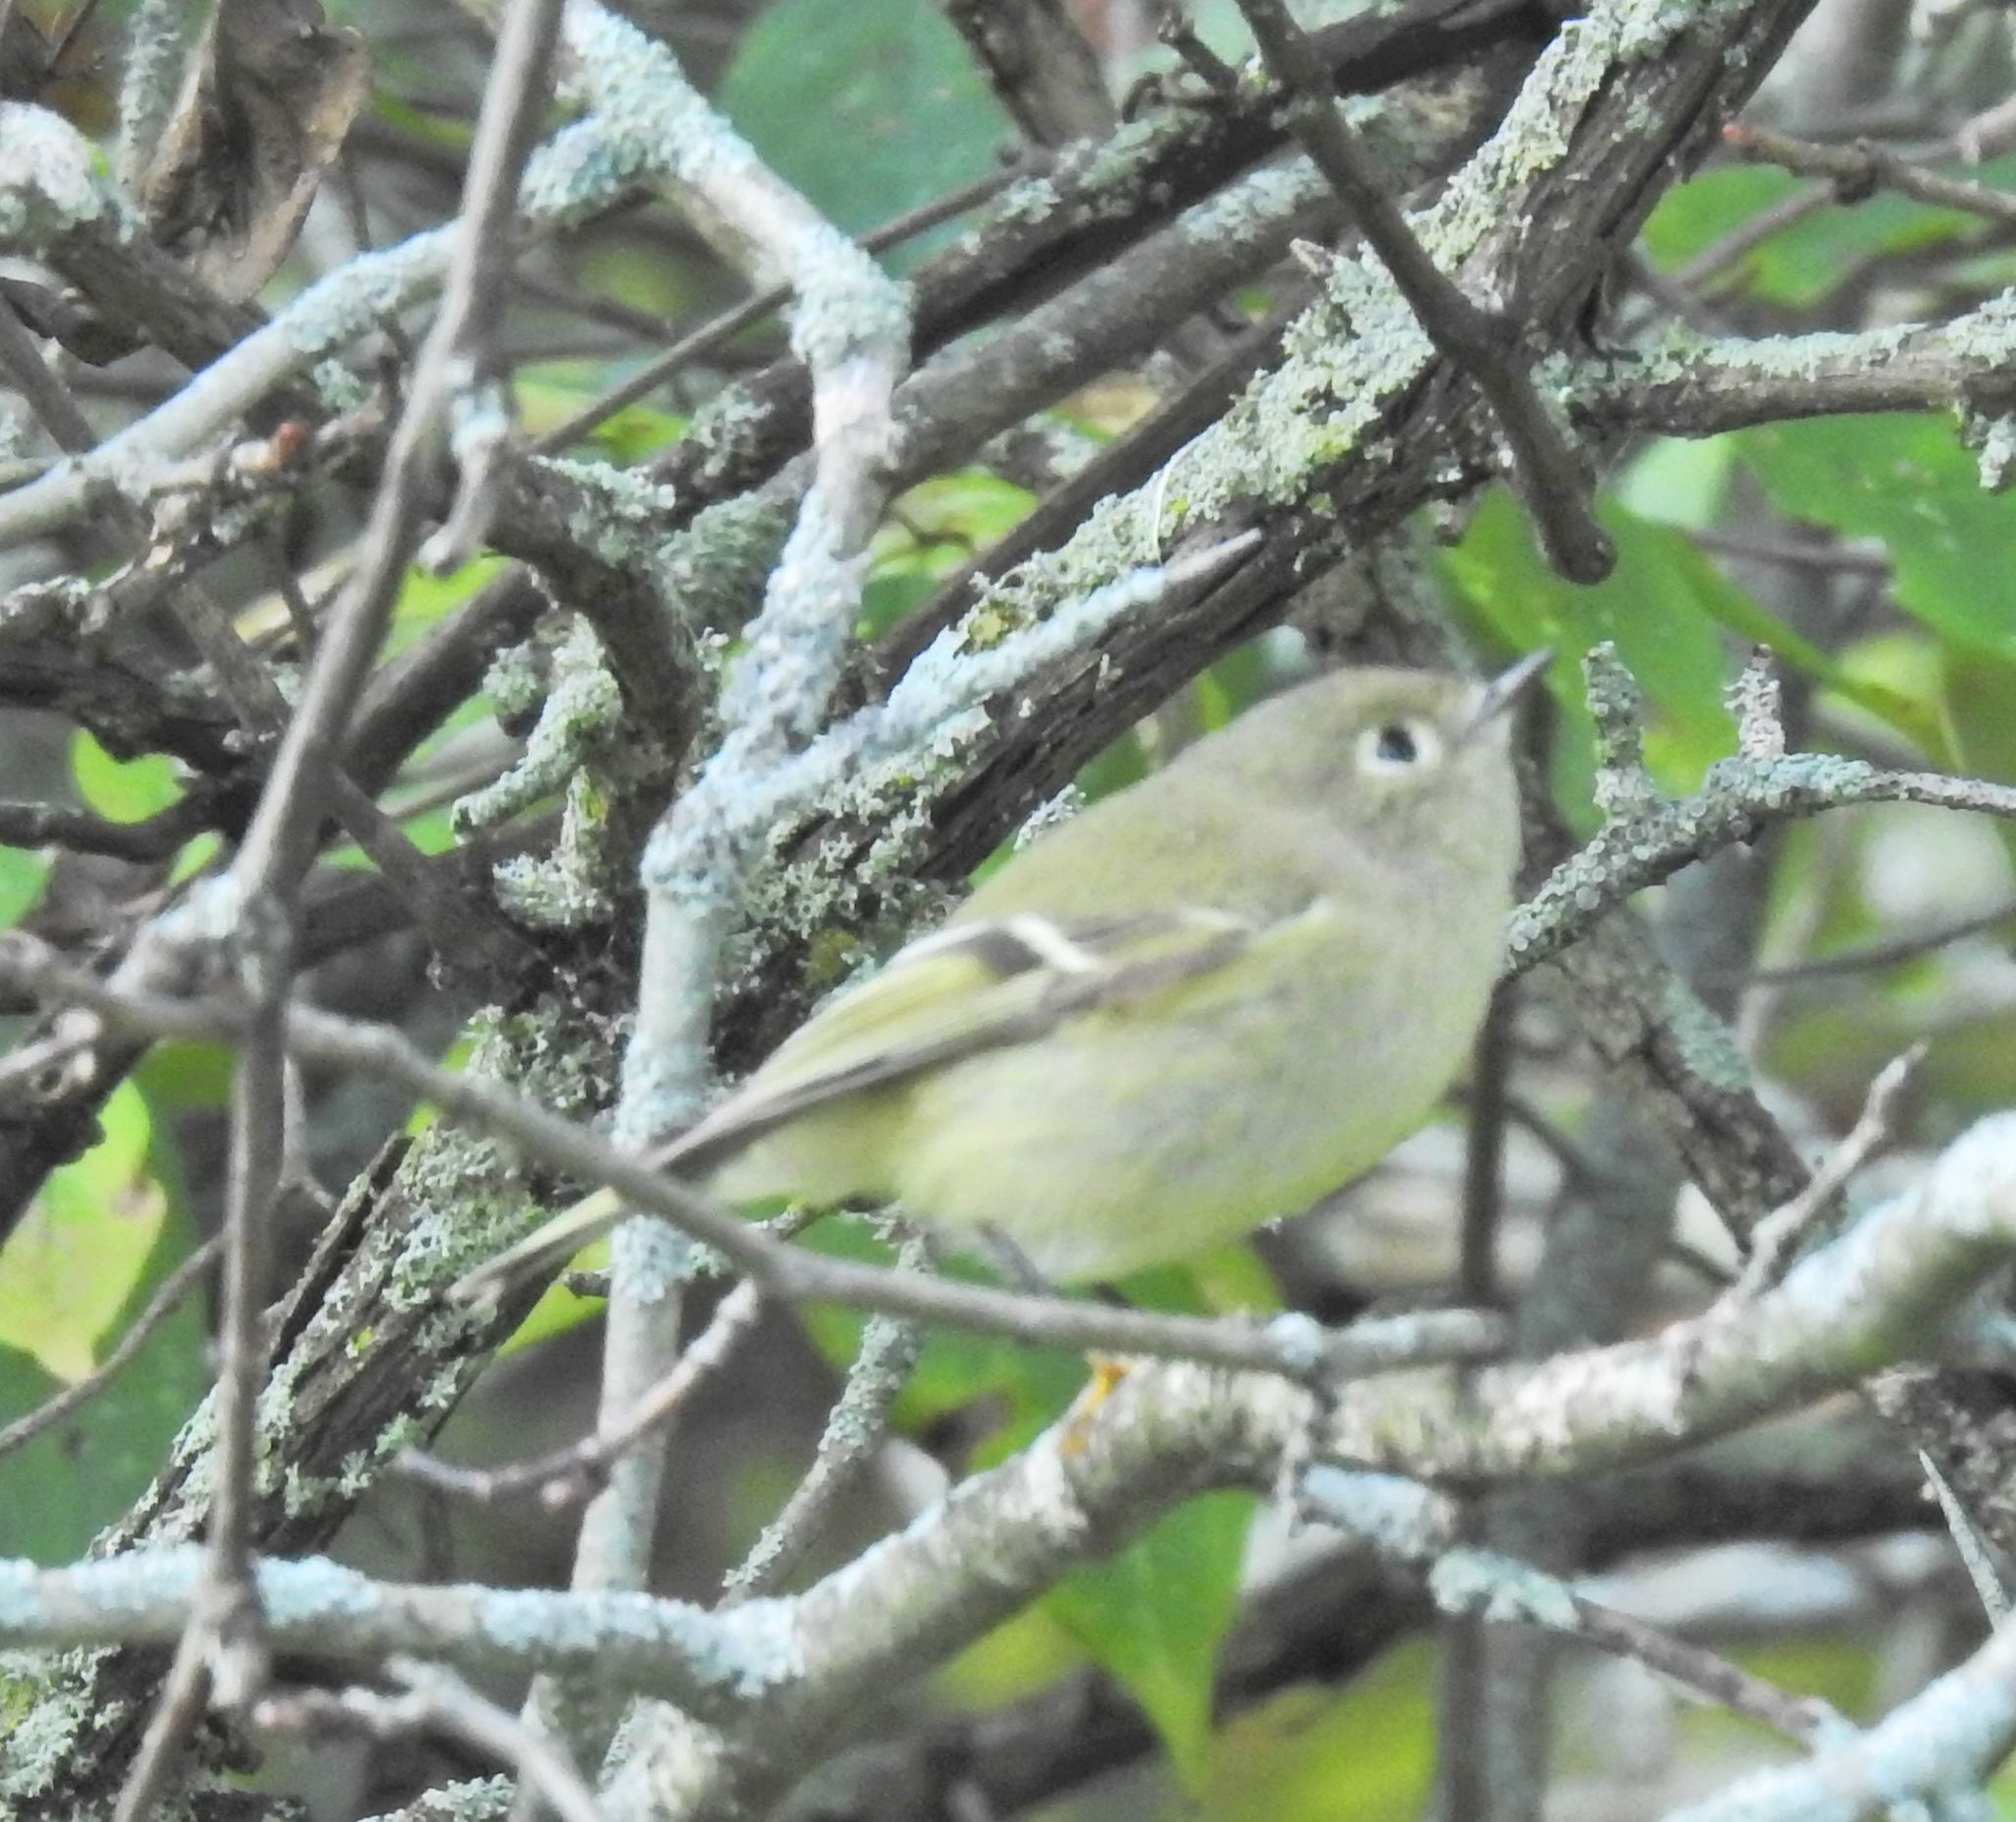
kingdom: Animalia
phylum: Chordata
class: Aves
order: Passeriformes
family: Regulidae
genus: Regulus
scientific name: Regulus calendula
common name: Ruby-crowned kinglet
